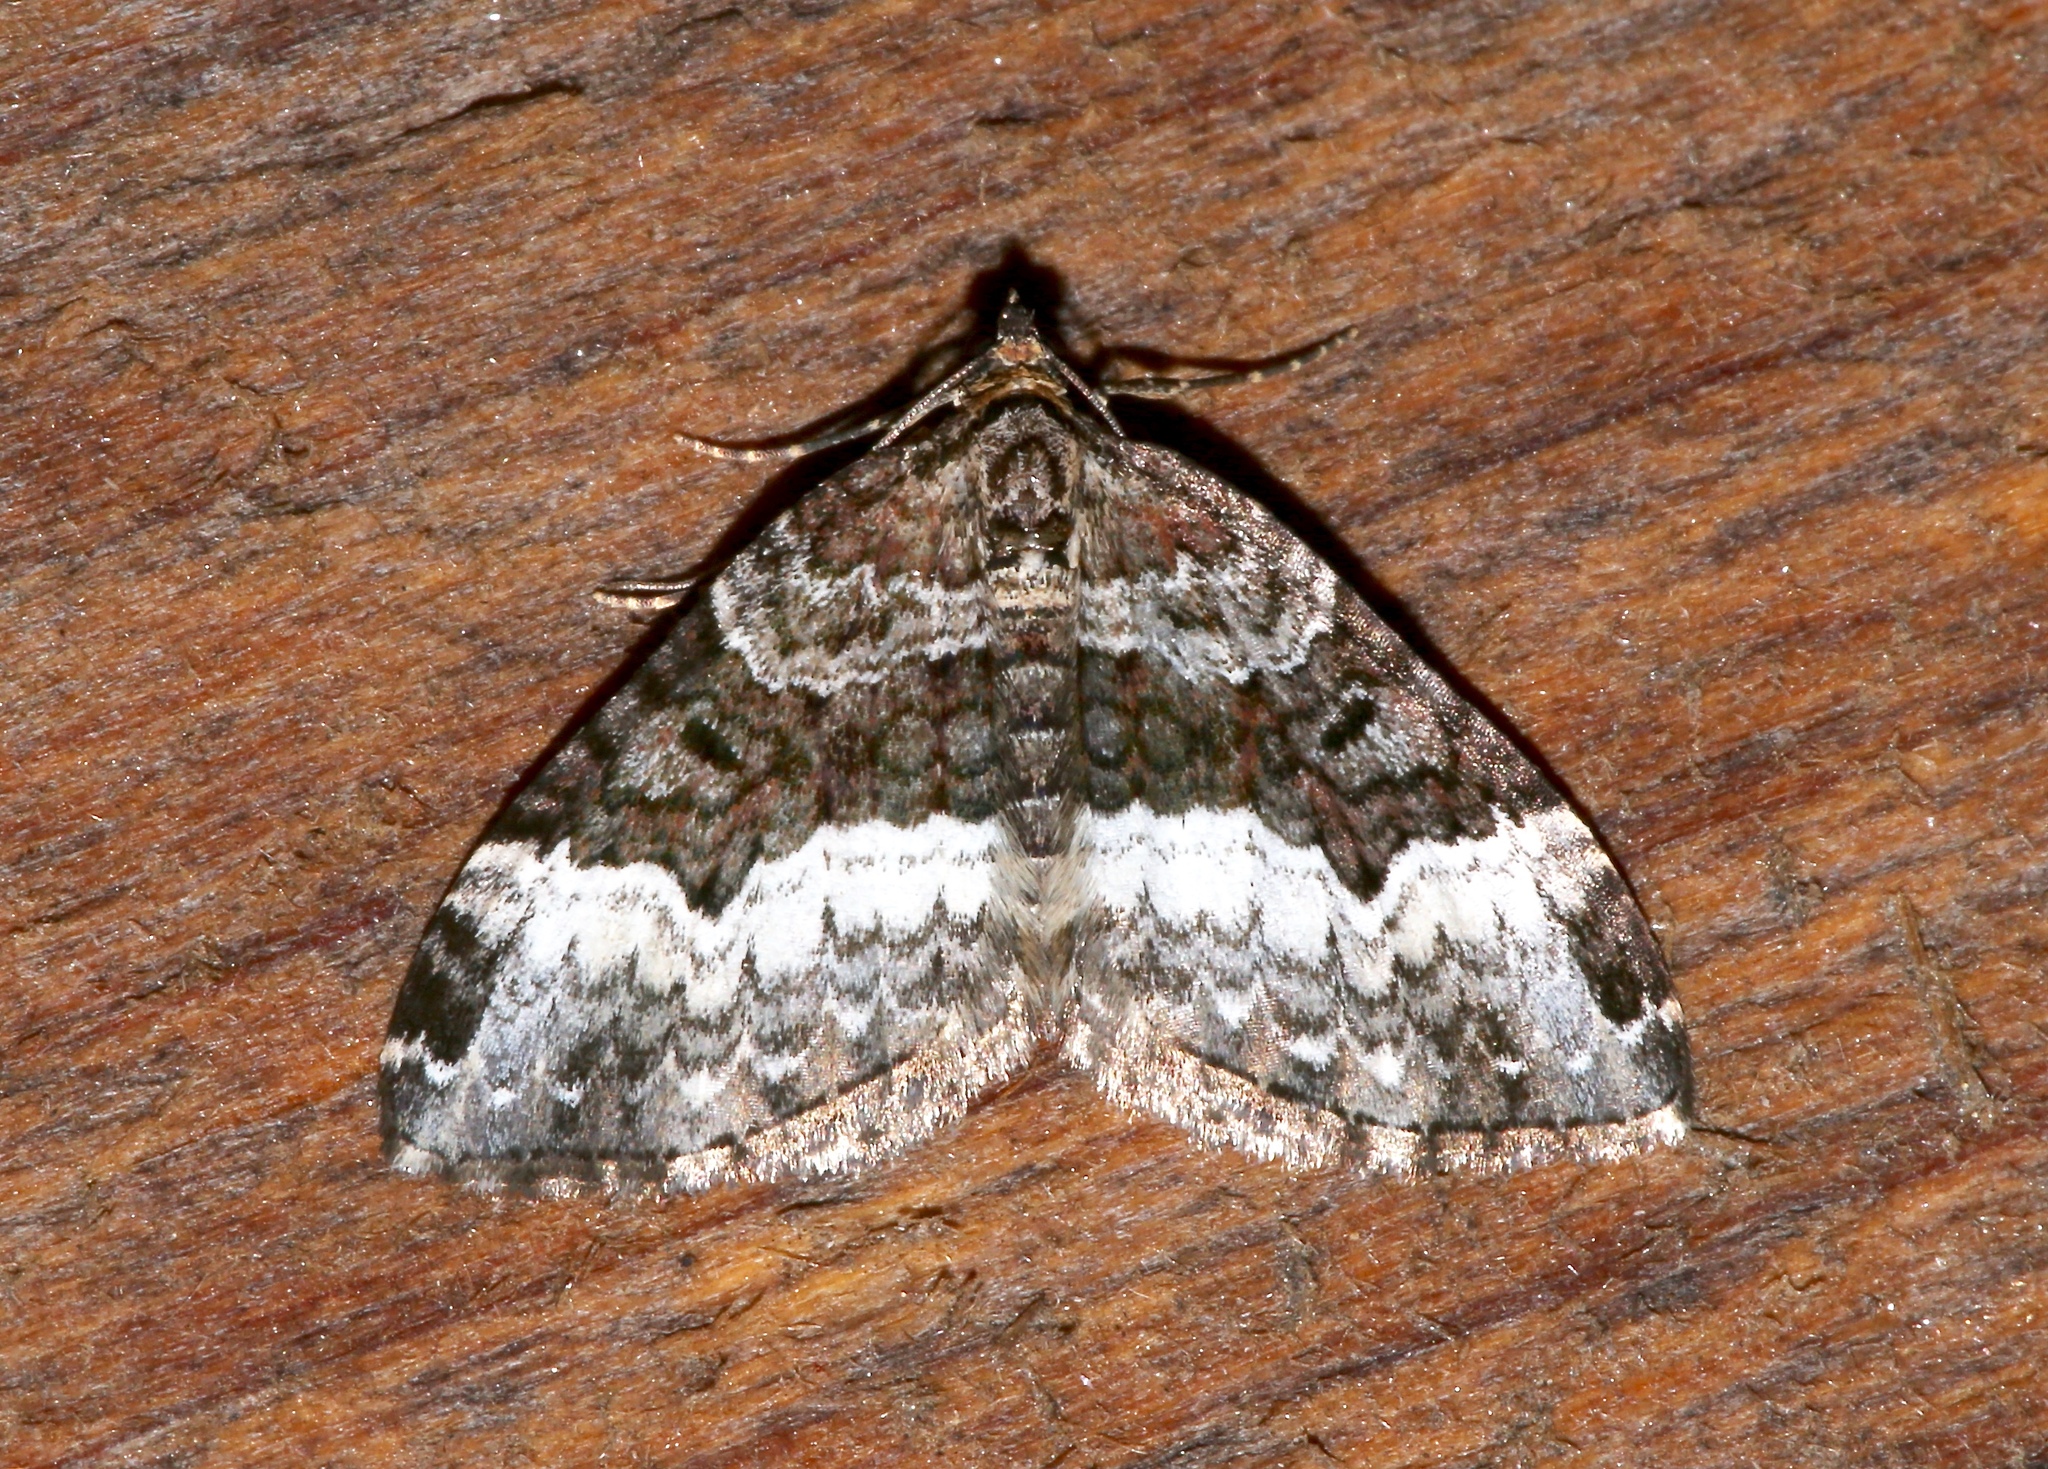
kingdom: Animalia
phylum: Arthropoda
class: Insecta
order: Lepidoptera
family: Geometridae
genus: Euphyia
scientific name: Euphyia intermediata
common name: Sharp-angled carpet
